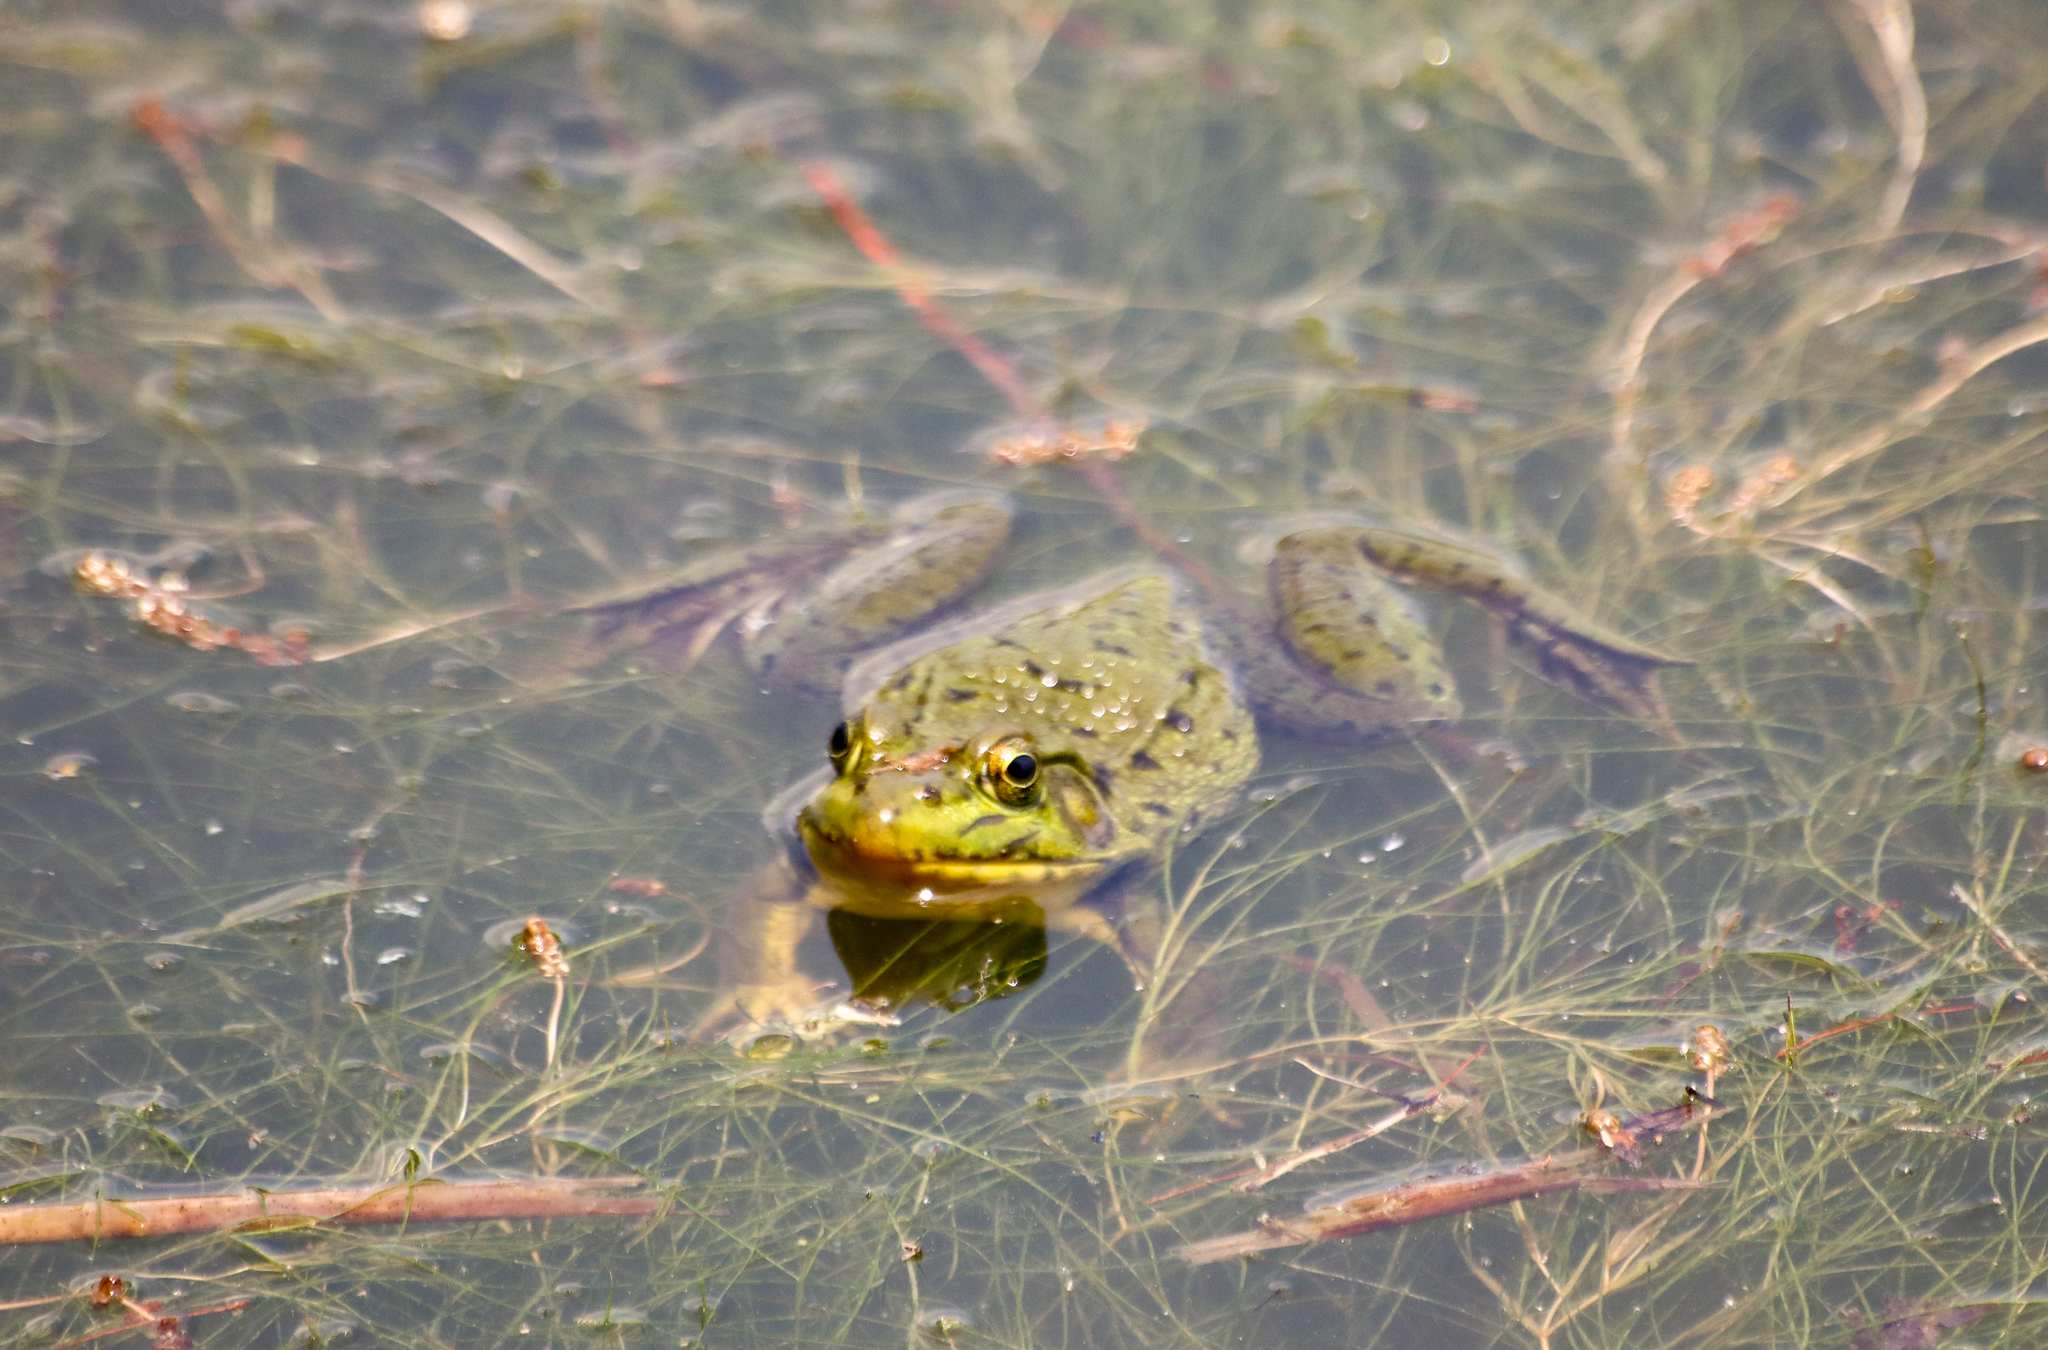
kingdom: Animalia
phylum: Chordata
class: Amphibia
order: Anura
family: Ranidae
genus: Lithobates
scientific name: Lithobates clamitans
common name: Green frog
